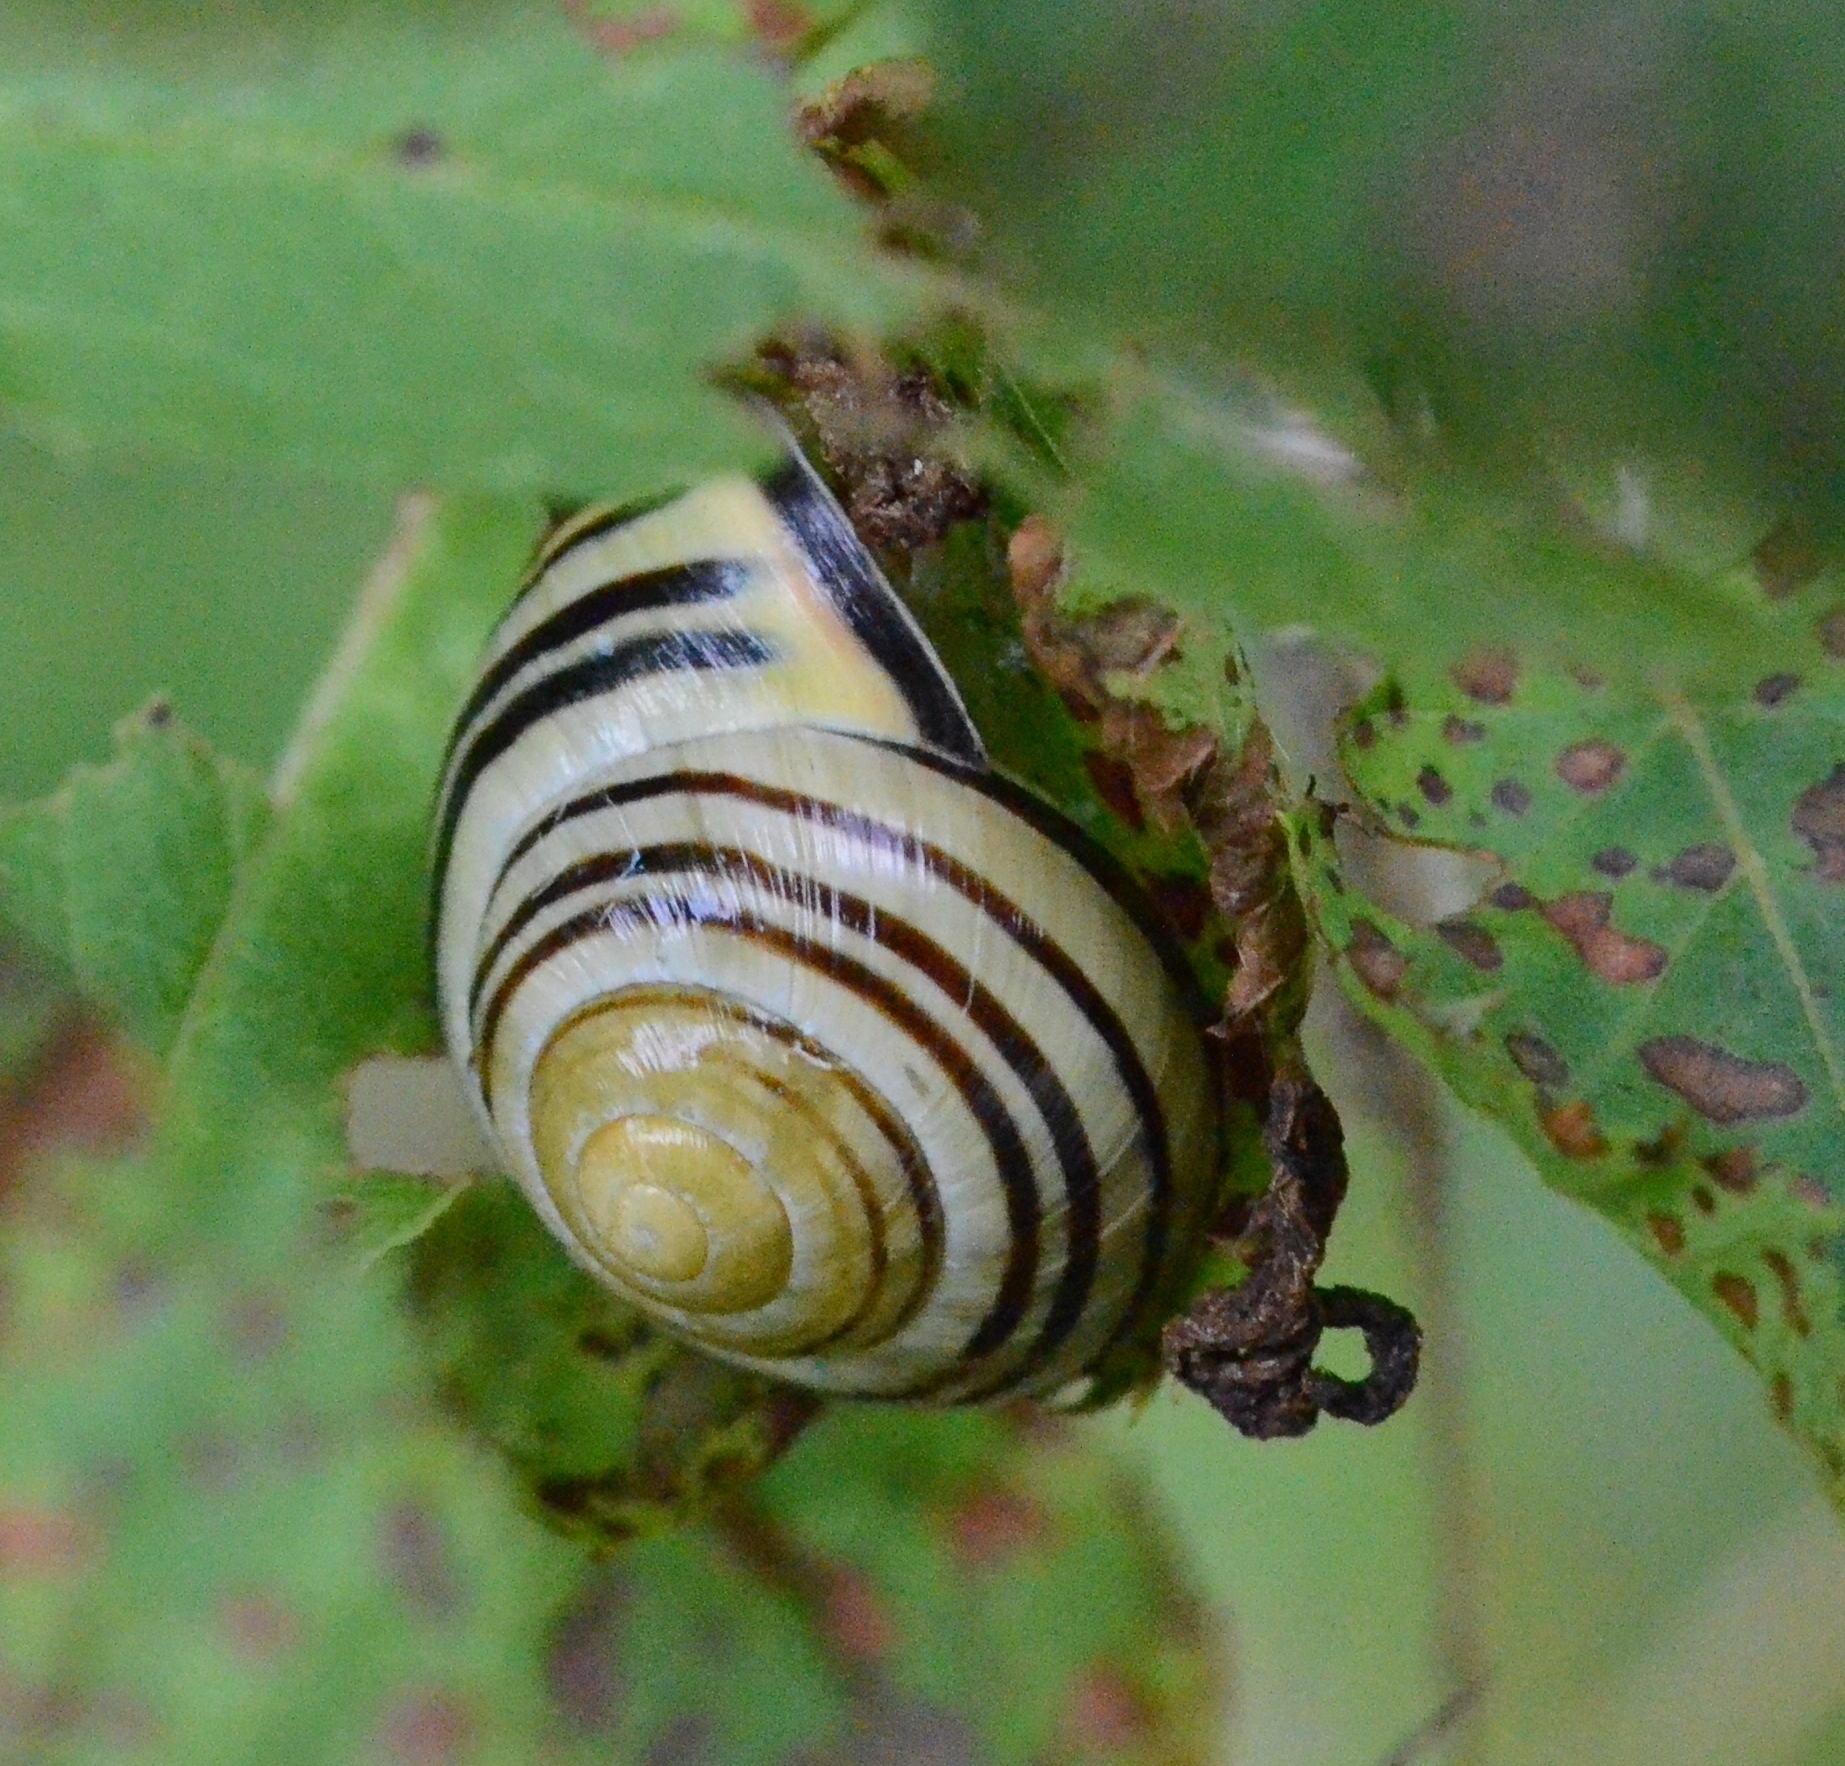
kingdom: Animalia
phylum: Mollusca
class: Gastropoda
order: Stylommatophora
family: Helicidae
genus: Cepaea
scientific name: Cepaea nemoralis
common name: Grovesnail
